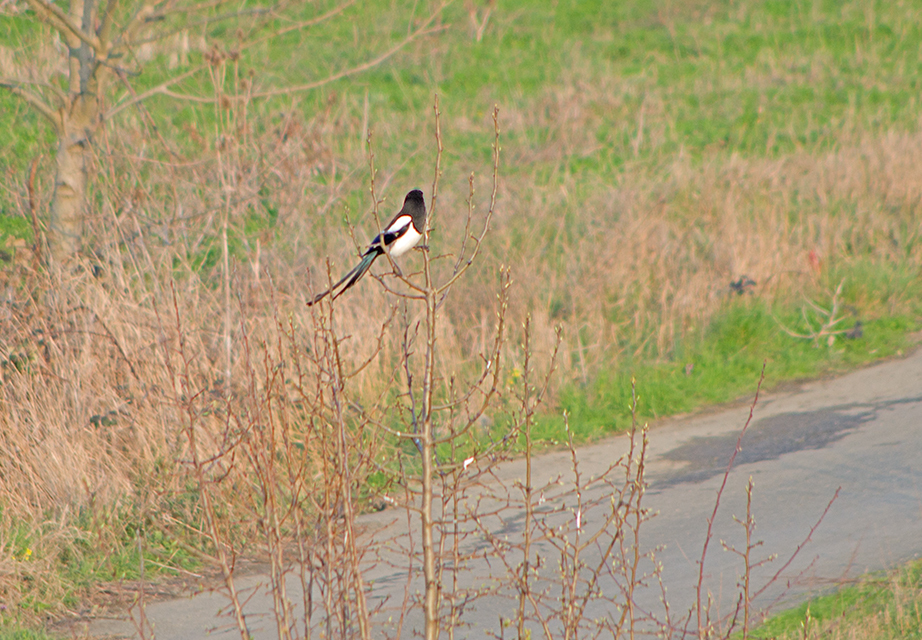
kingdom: Animalia
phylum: Chordata
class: Aves
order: Passeriformes
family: Corvidae
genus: Pica
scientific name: Pica pica
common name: Eurasian magpie
